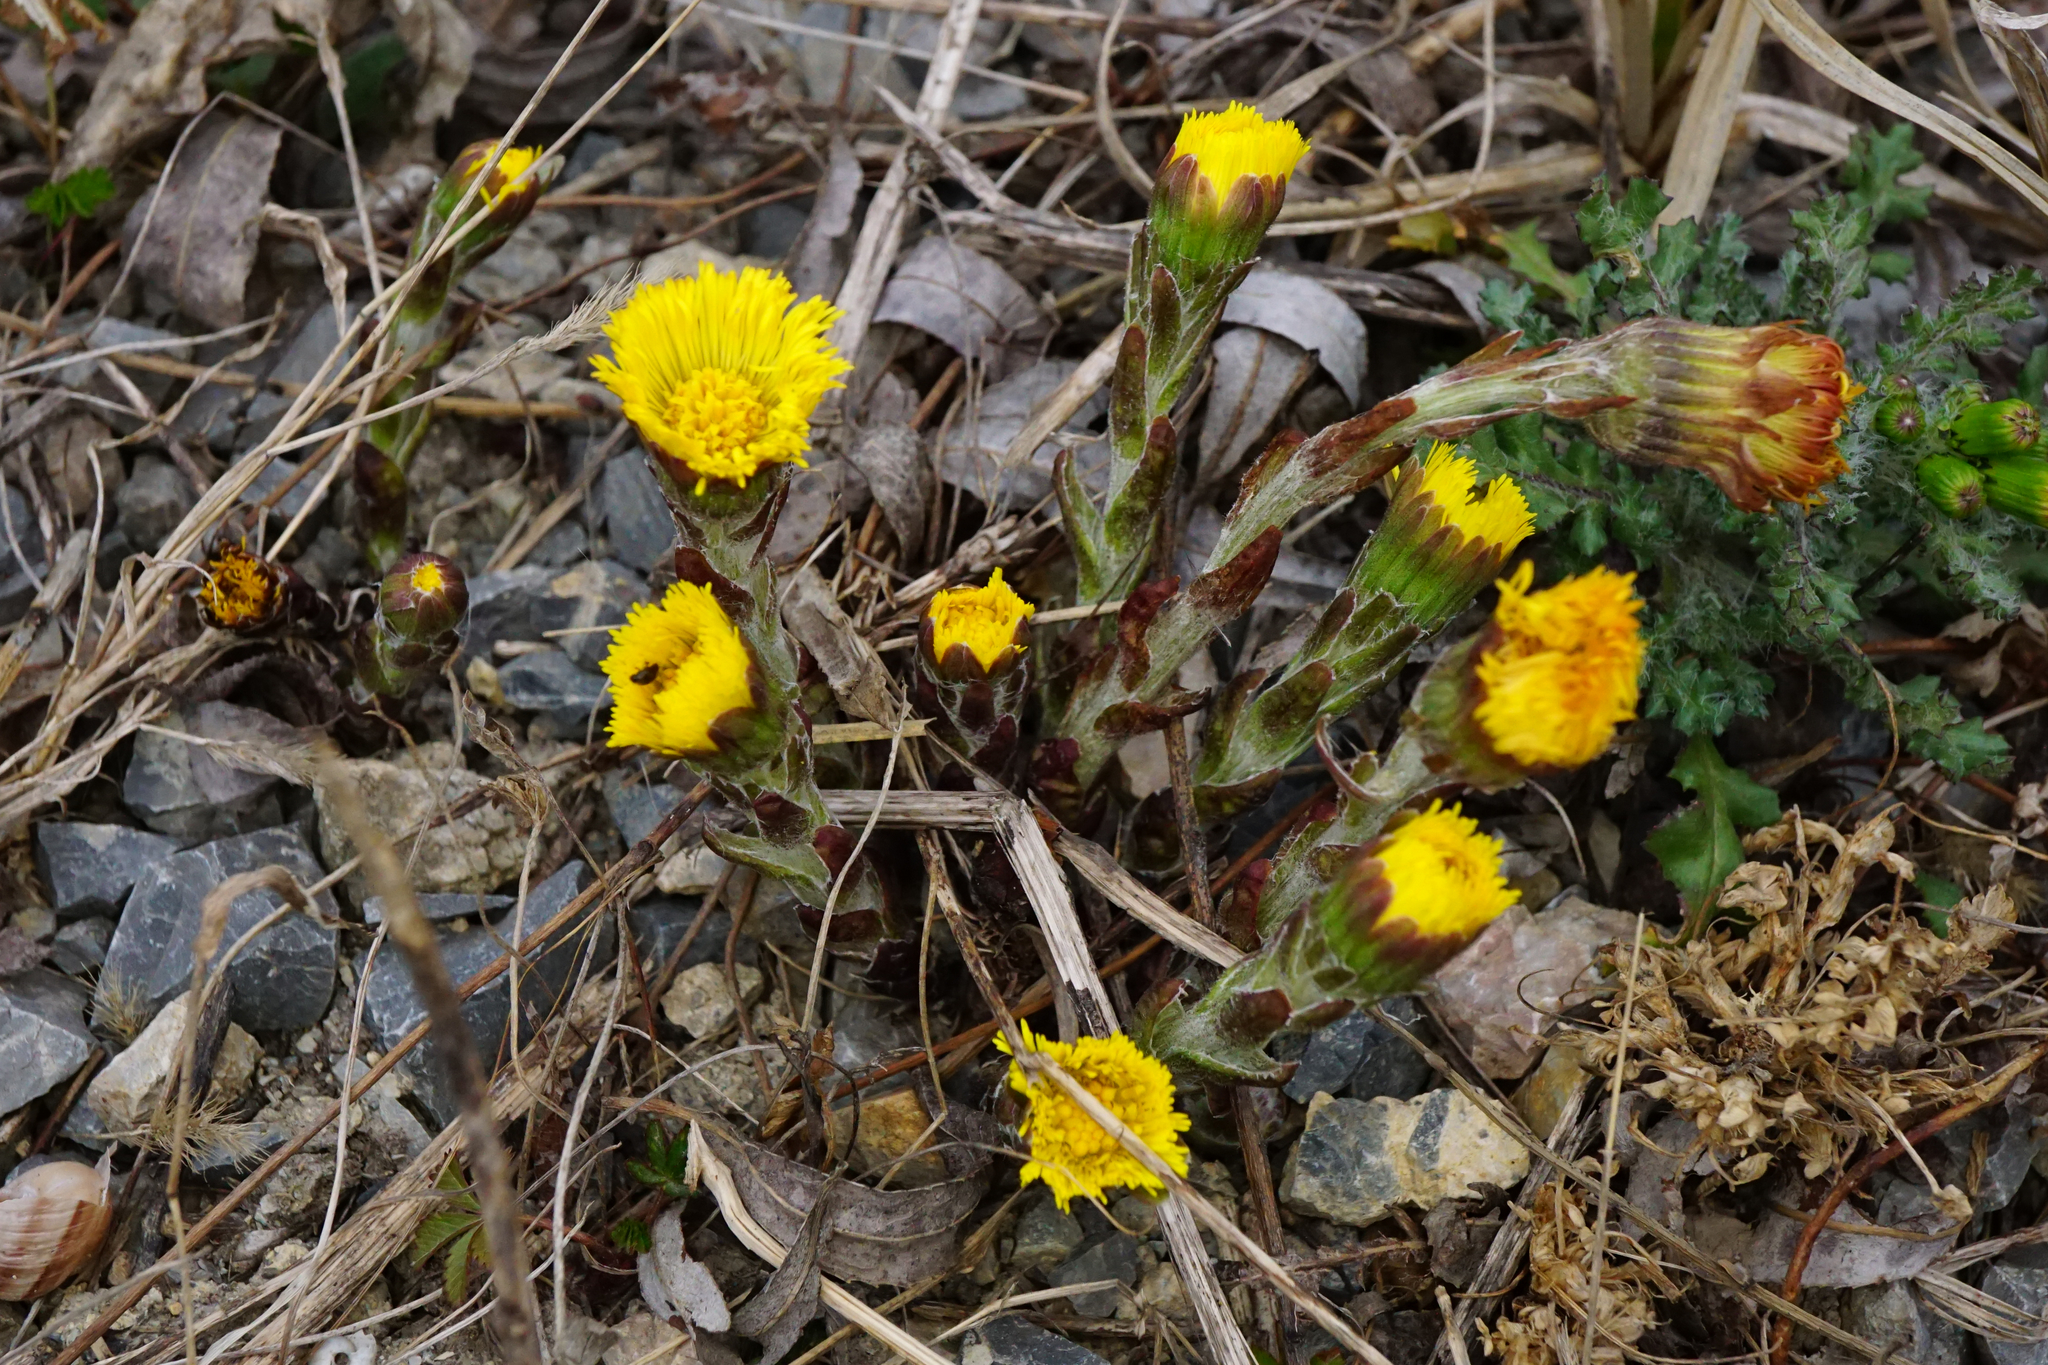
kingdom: Plantae
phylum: Tracheophyta
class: Magnoliopsida
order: Asterales
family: Asteraceae
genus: Tussilago
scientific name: Tussilago farfara
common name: Coltsfoot
